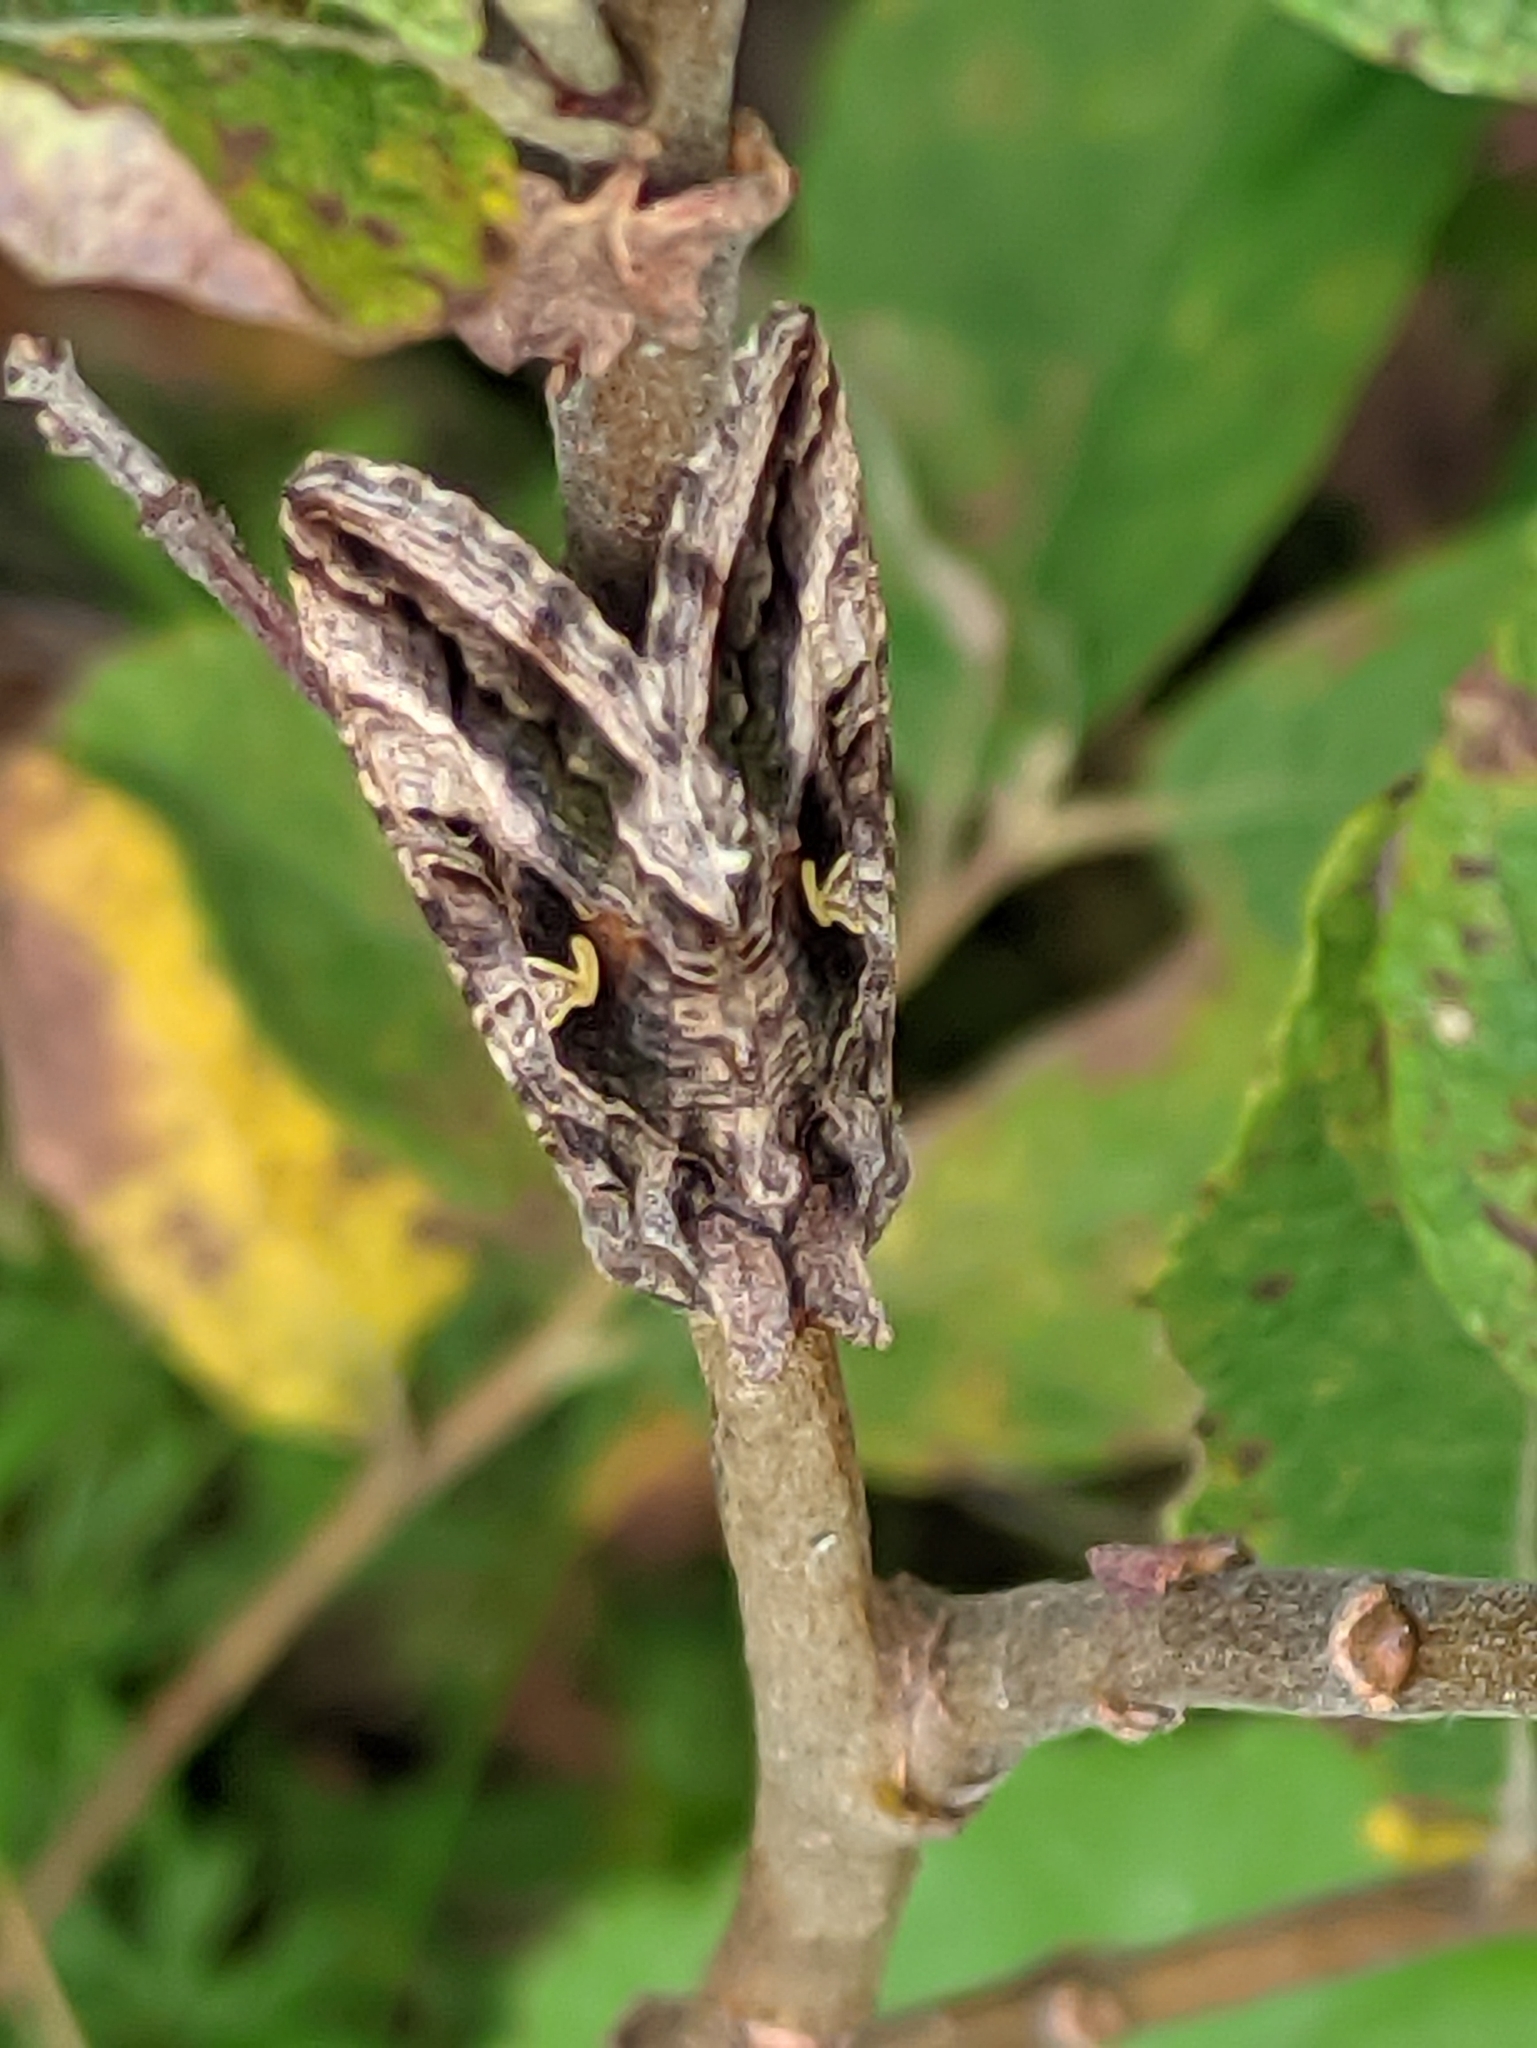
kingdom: Animalia
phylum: Arthropoda
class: Insecta
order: Lepidoptera
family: Noctuidae
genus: Autographa
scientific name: Autographa gamma
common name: Silver y
